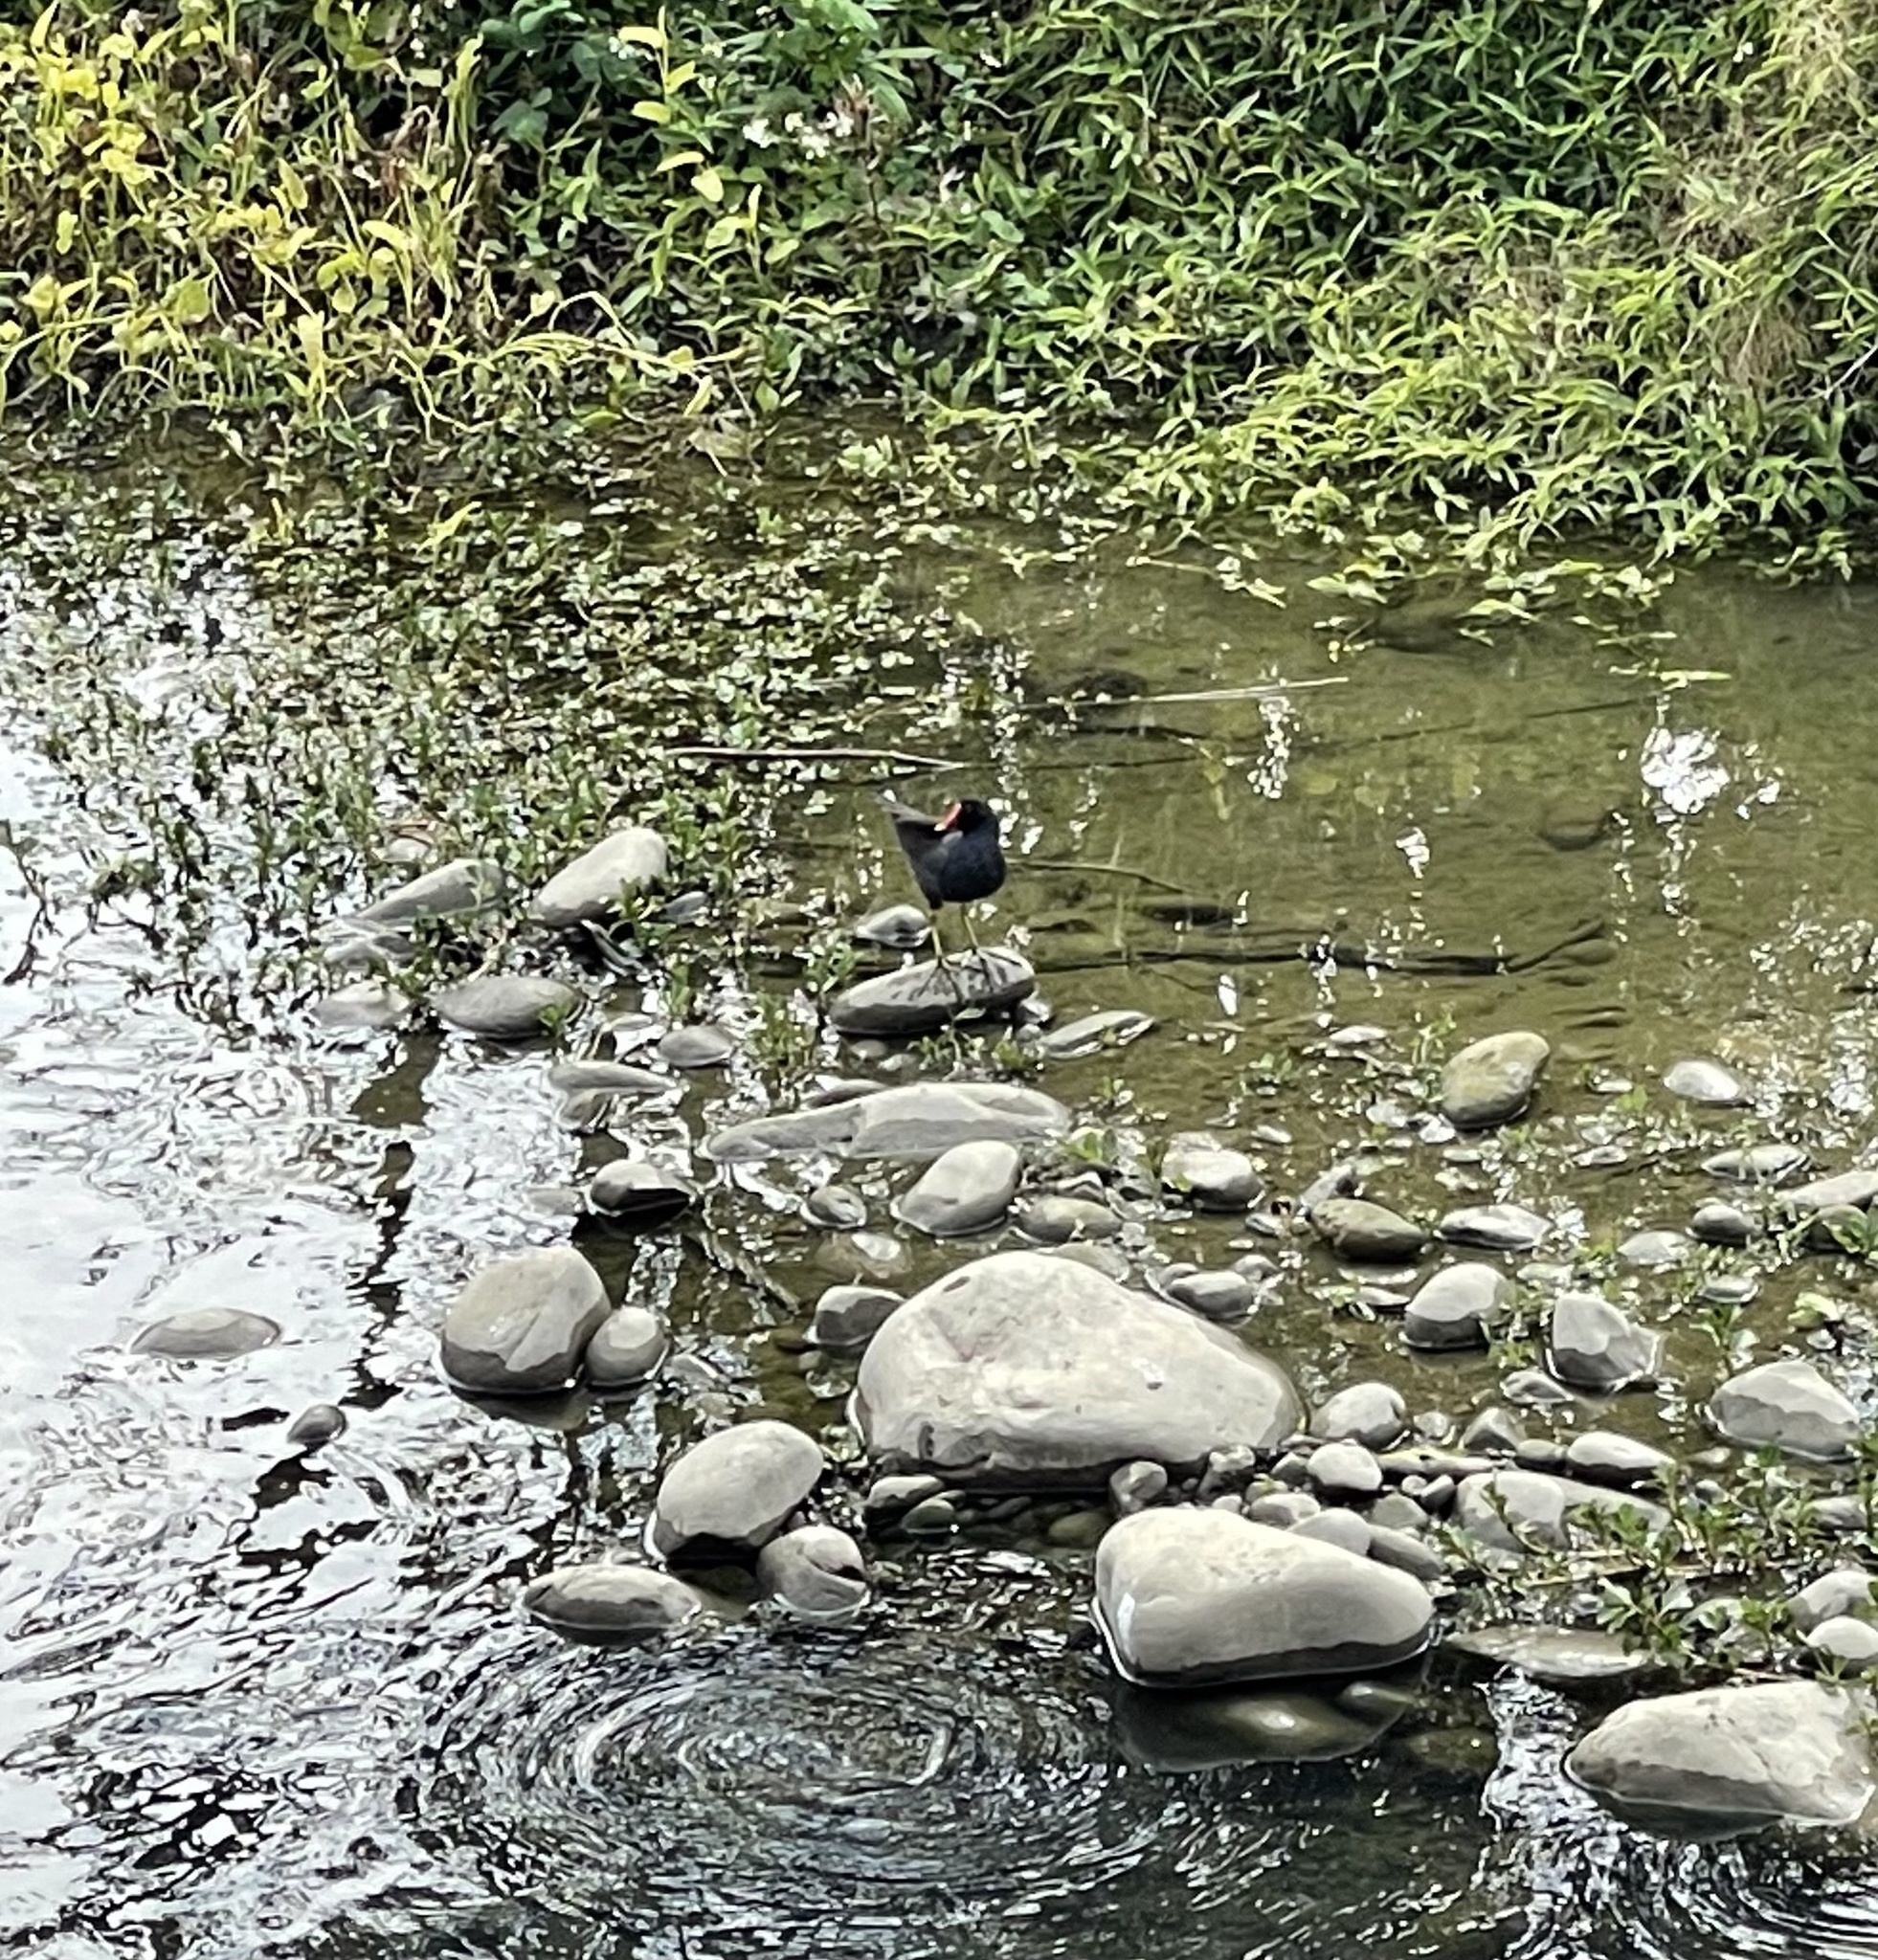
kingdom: Animalia
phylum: Chordata
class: Aves
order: Gruiformes
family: Rallidae
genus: Gallinula
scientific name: Gallinula chloropus
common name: Common moorhen
